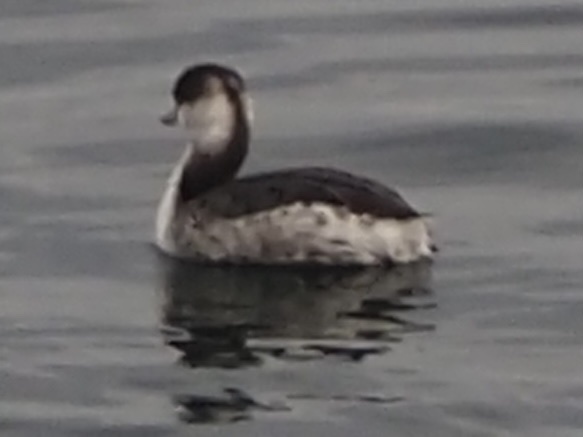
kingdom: Animalia
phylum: Chordata
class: Aves
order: Podicipediformes
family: Podicipedidae
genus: Podiceps
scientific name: Podiceps auritus
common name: Horned grebe
